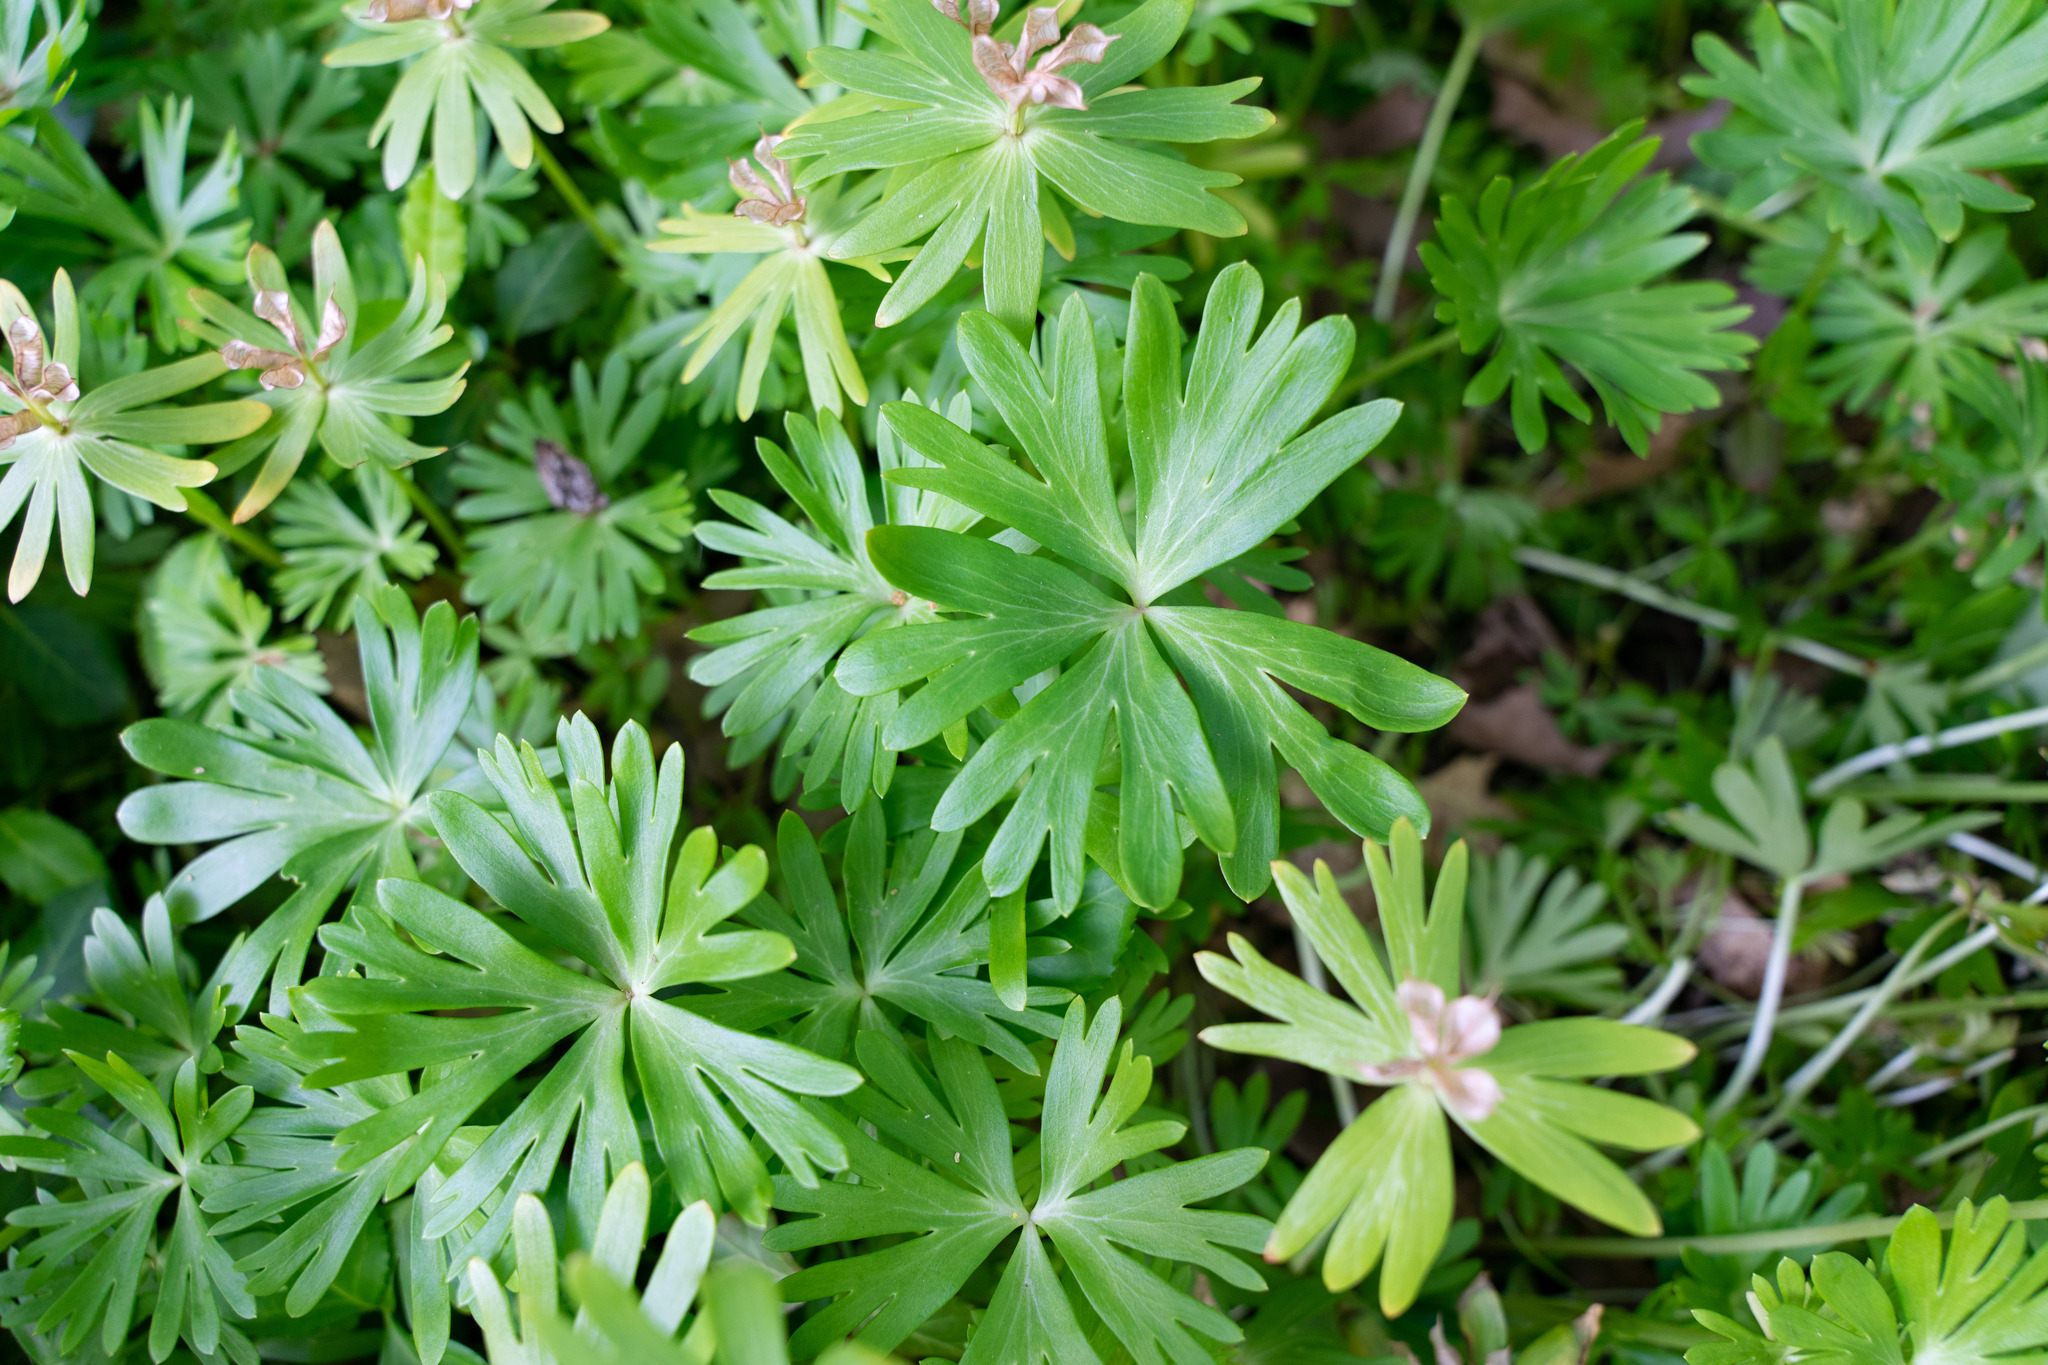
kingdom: Plantae
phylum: Tracheophyta
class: Magnoliopsida
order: Ranunculales
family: Ranunculaceae
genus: Eranthis
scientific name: Eranthis hyemalis
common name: Winter aconite
